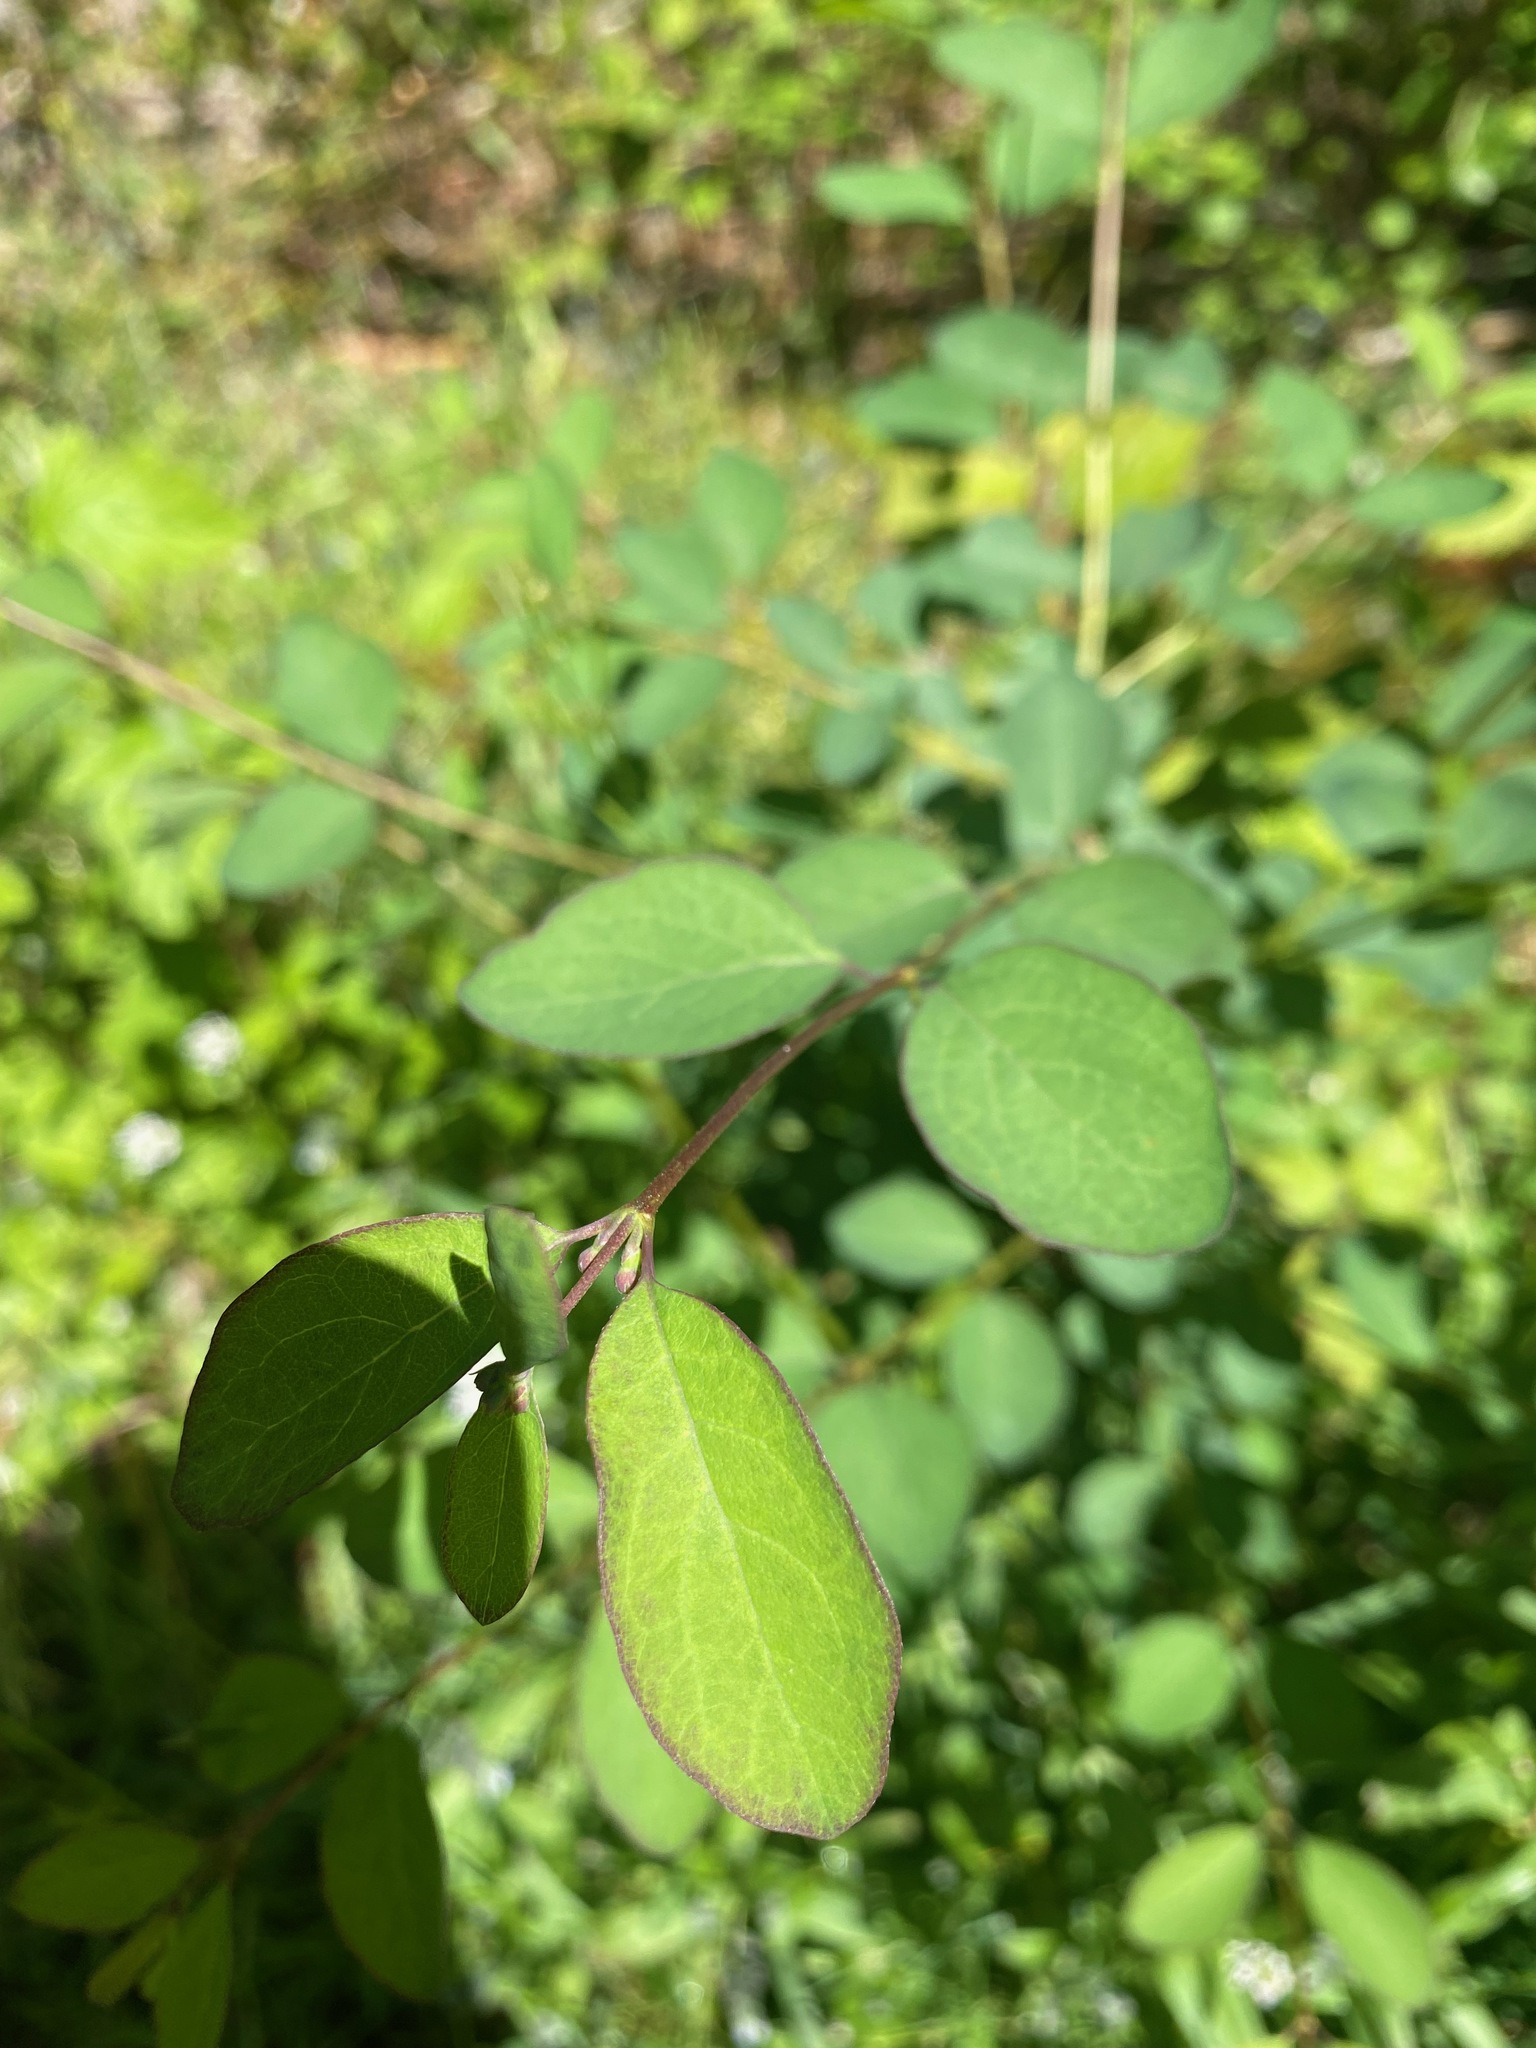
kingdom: Plantae
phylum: Tracheophyta
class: Magnoliopsida
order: Dipsacales
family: Caprifoliaceae
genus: Symphoricarpos
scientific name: Symphoricarpos albus
